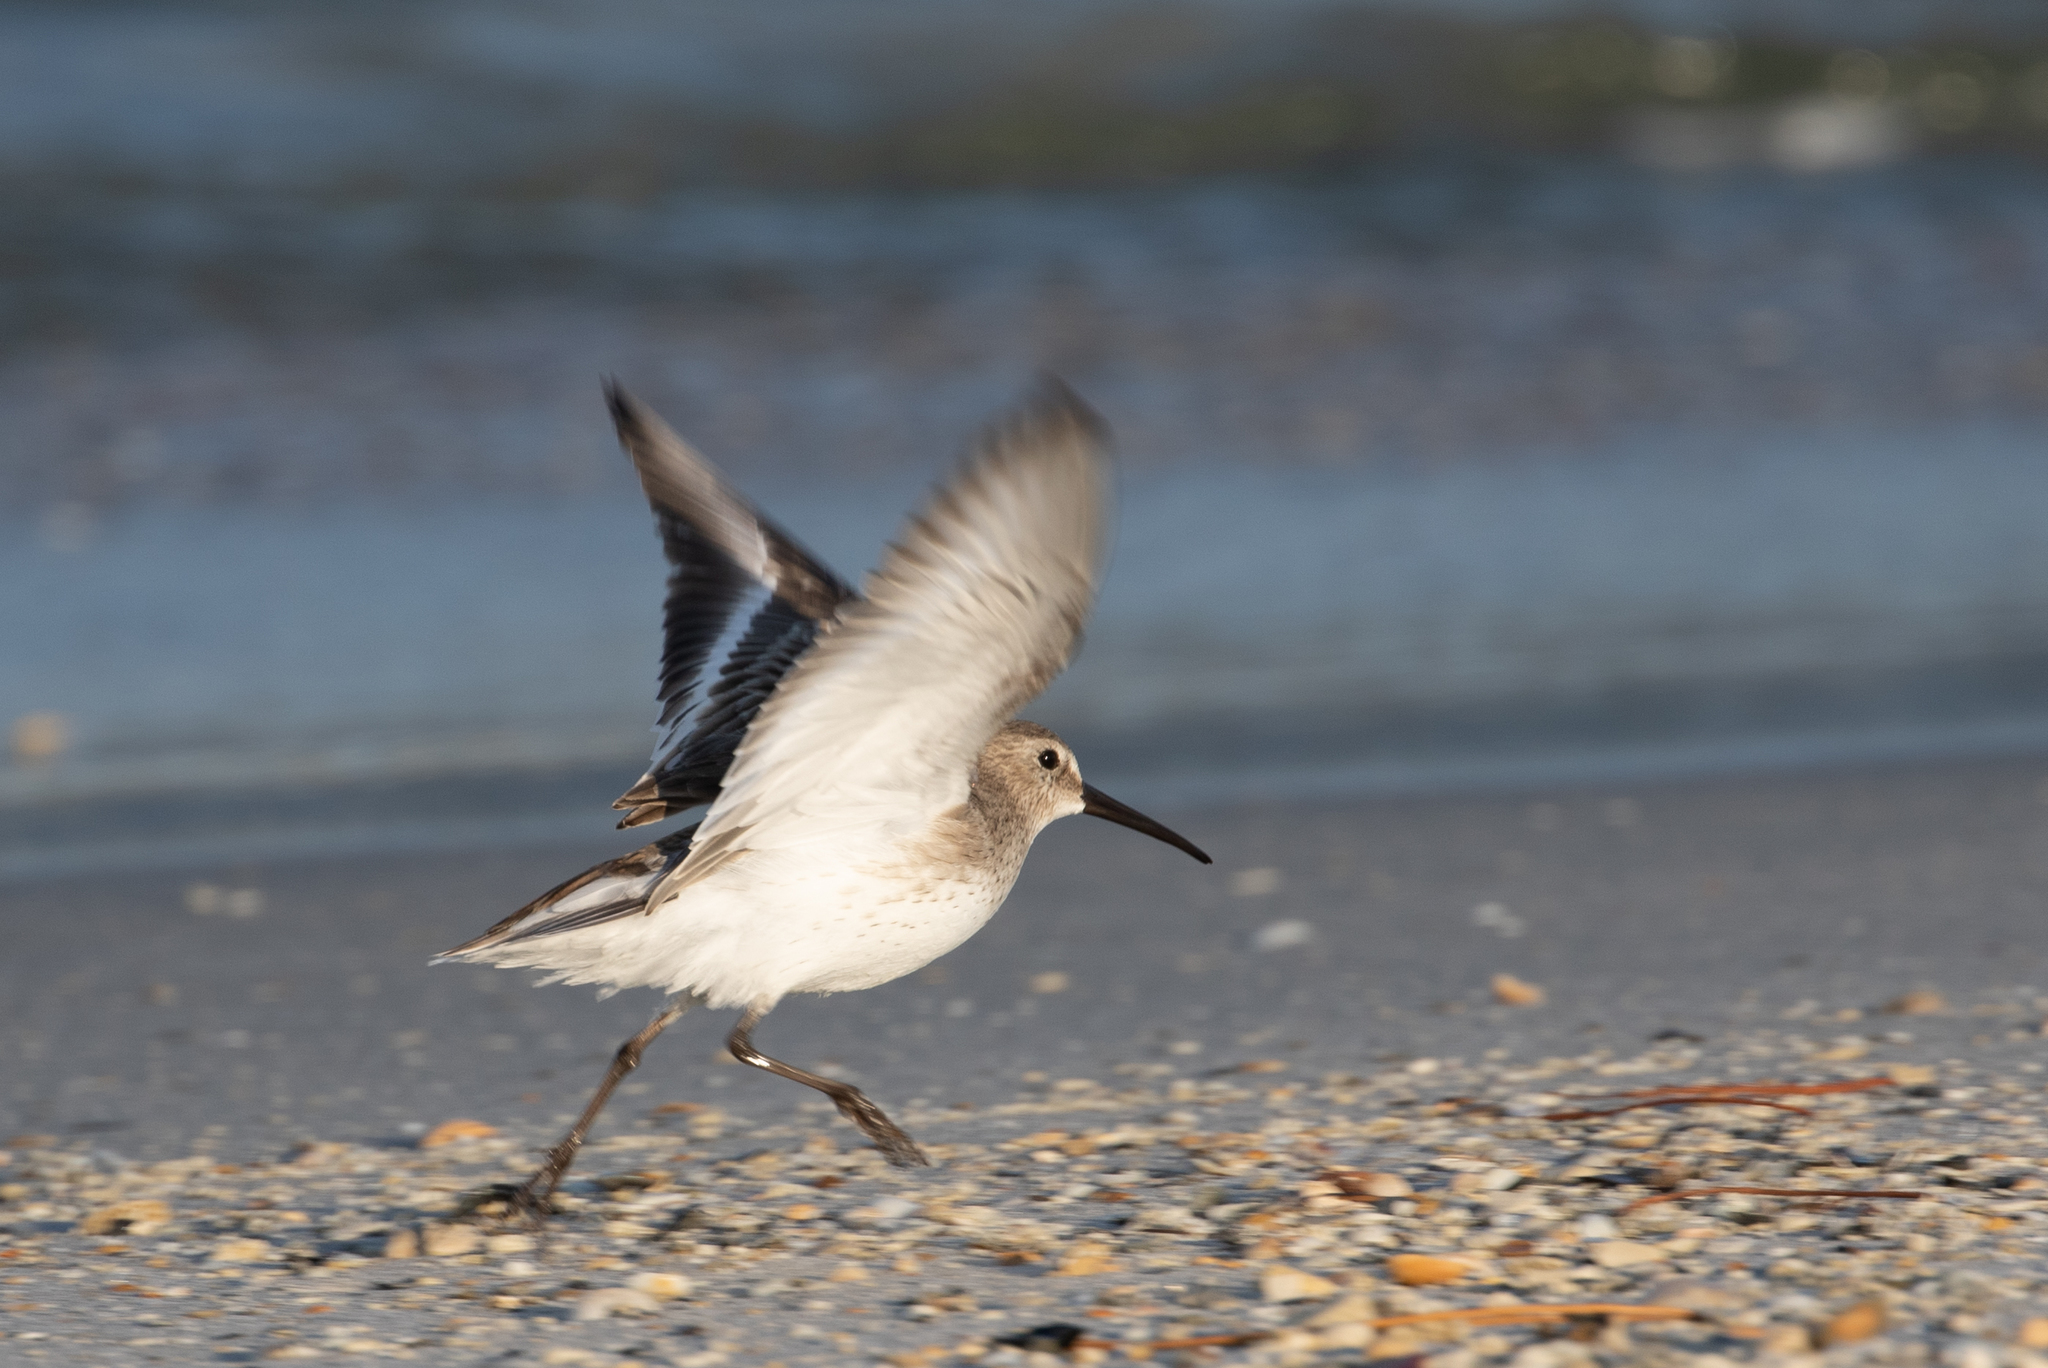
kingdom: Animalia
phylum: Chordata
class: Aves
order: Charadriiformes
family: Scolopacidae
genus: Calidris
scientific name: Calidris alpina
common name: Dunlin
